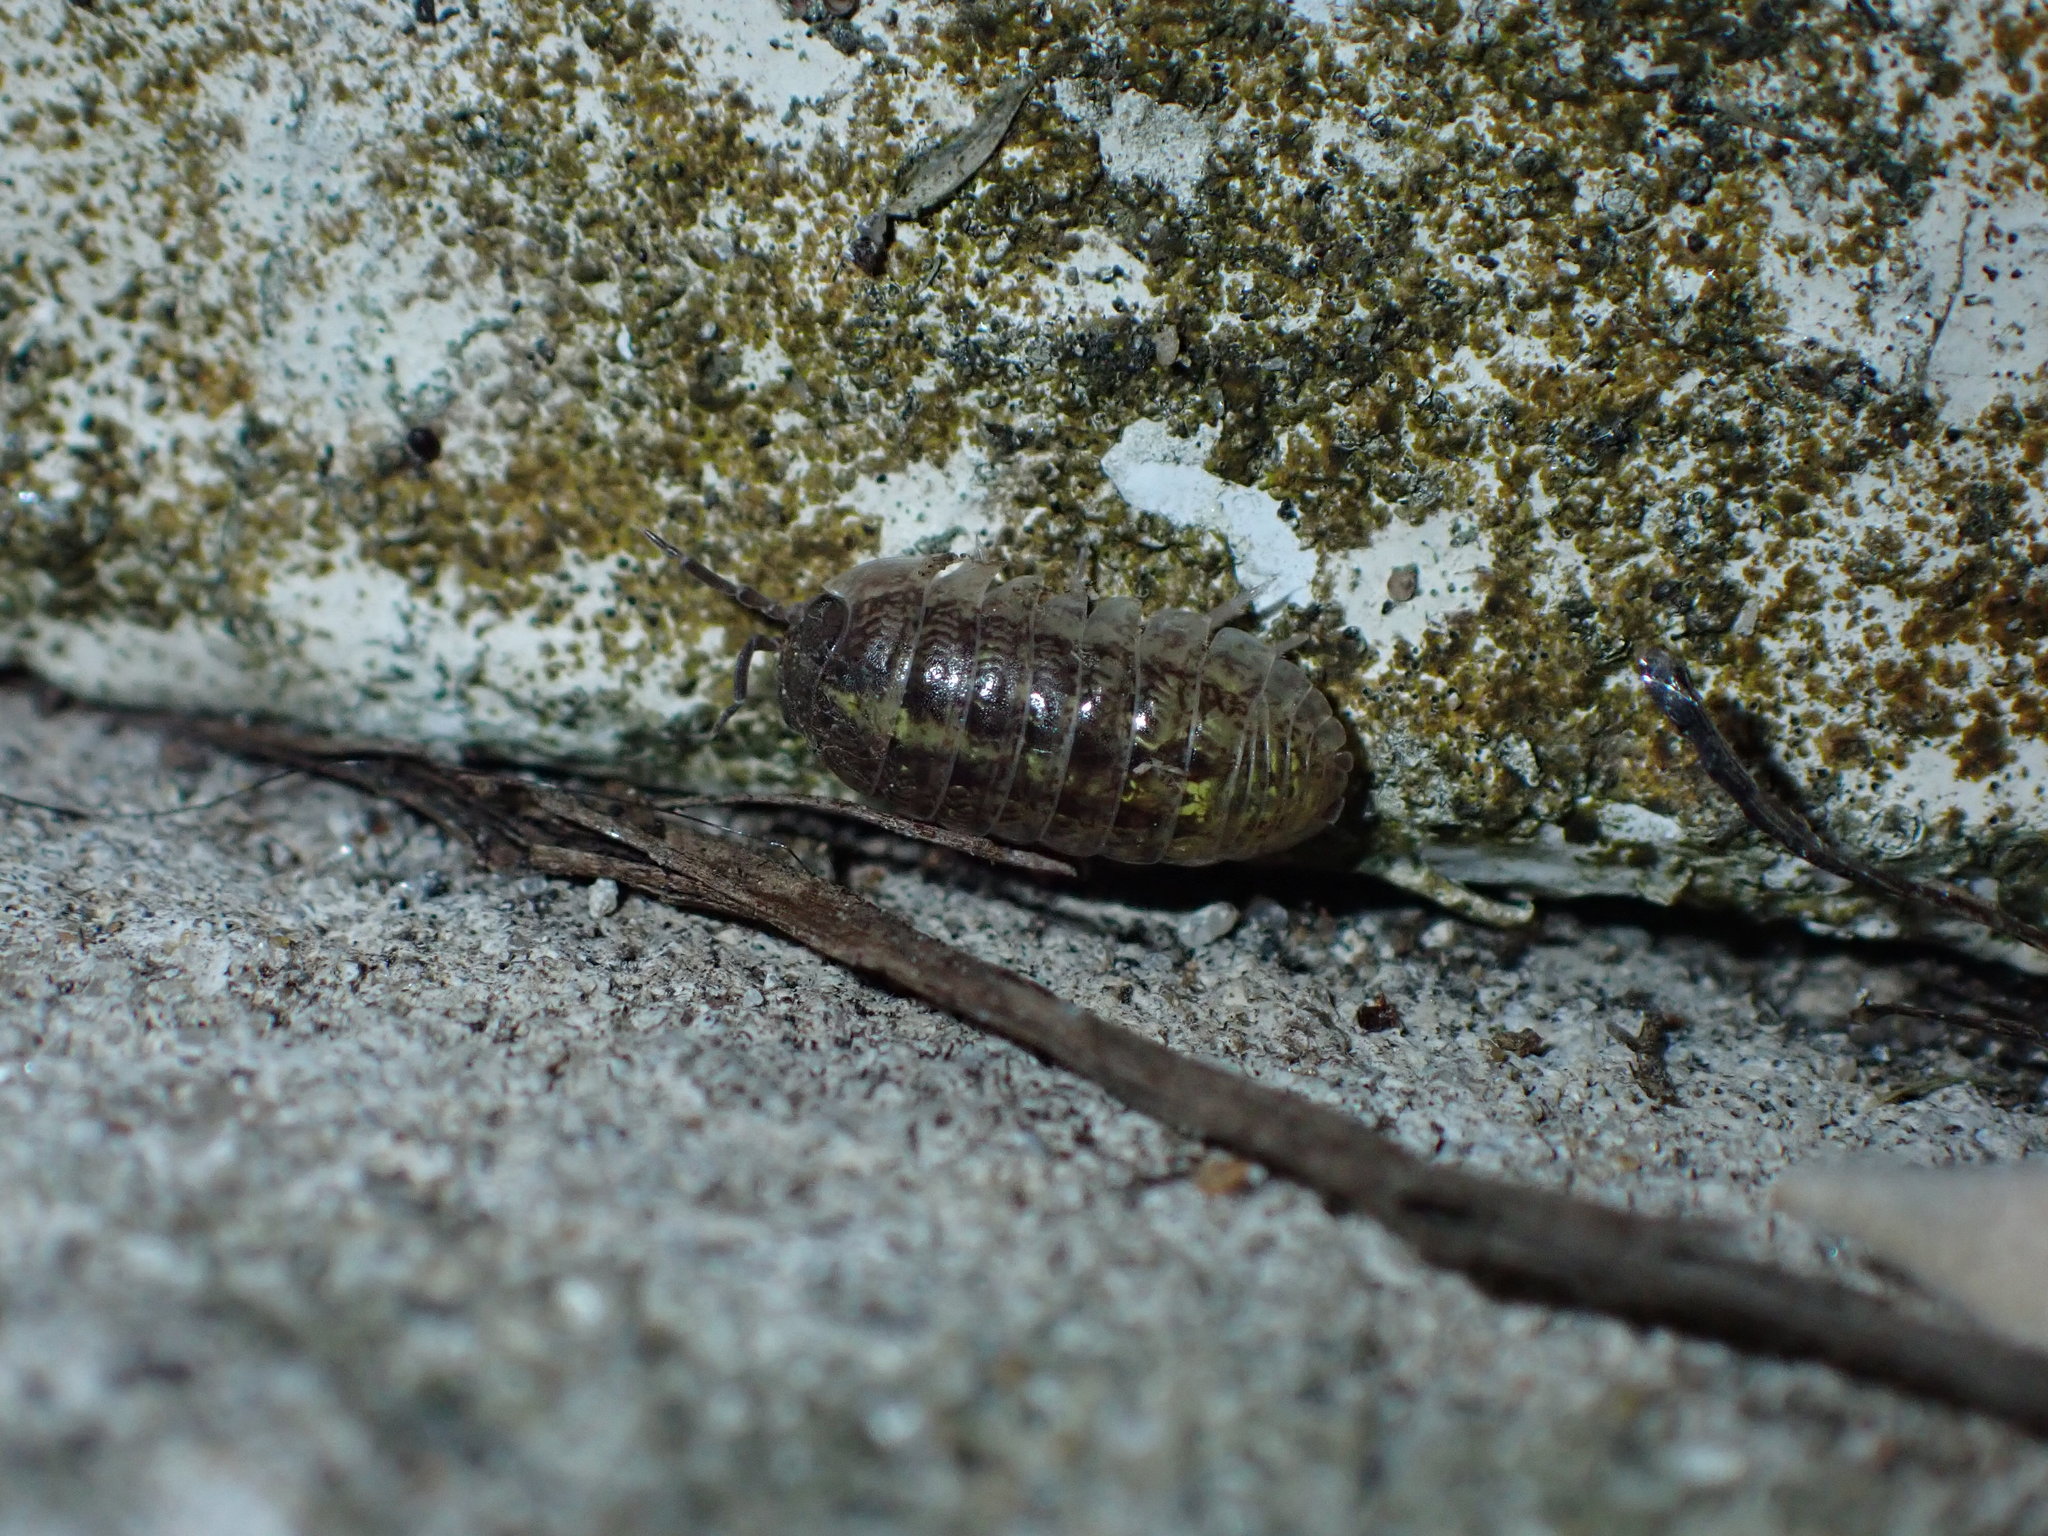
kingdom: Animalia
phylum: Arthropoda
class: Malacostraca
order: Isopoda
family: Armadillidiidae
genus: Armadillidium
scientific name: Armadillidium vulgare
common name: Common pill woodlouse
